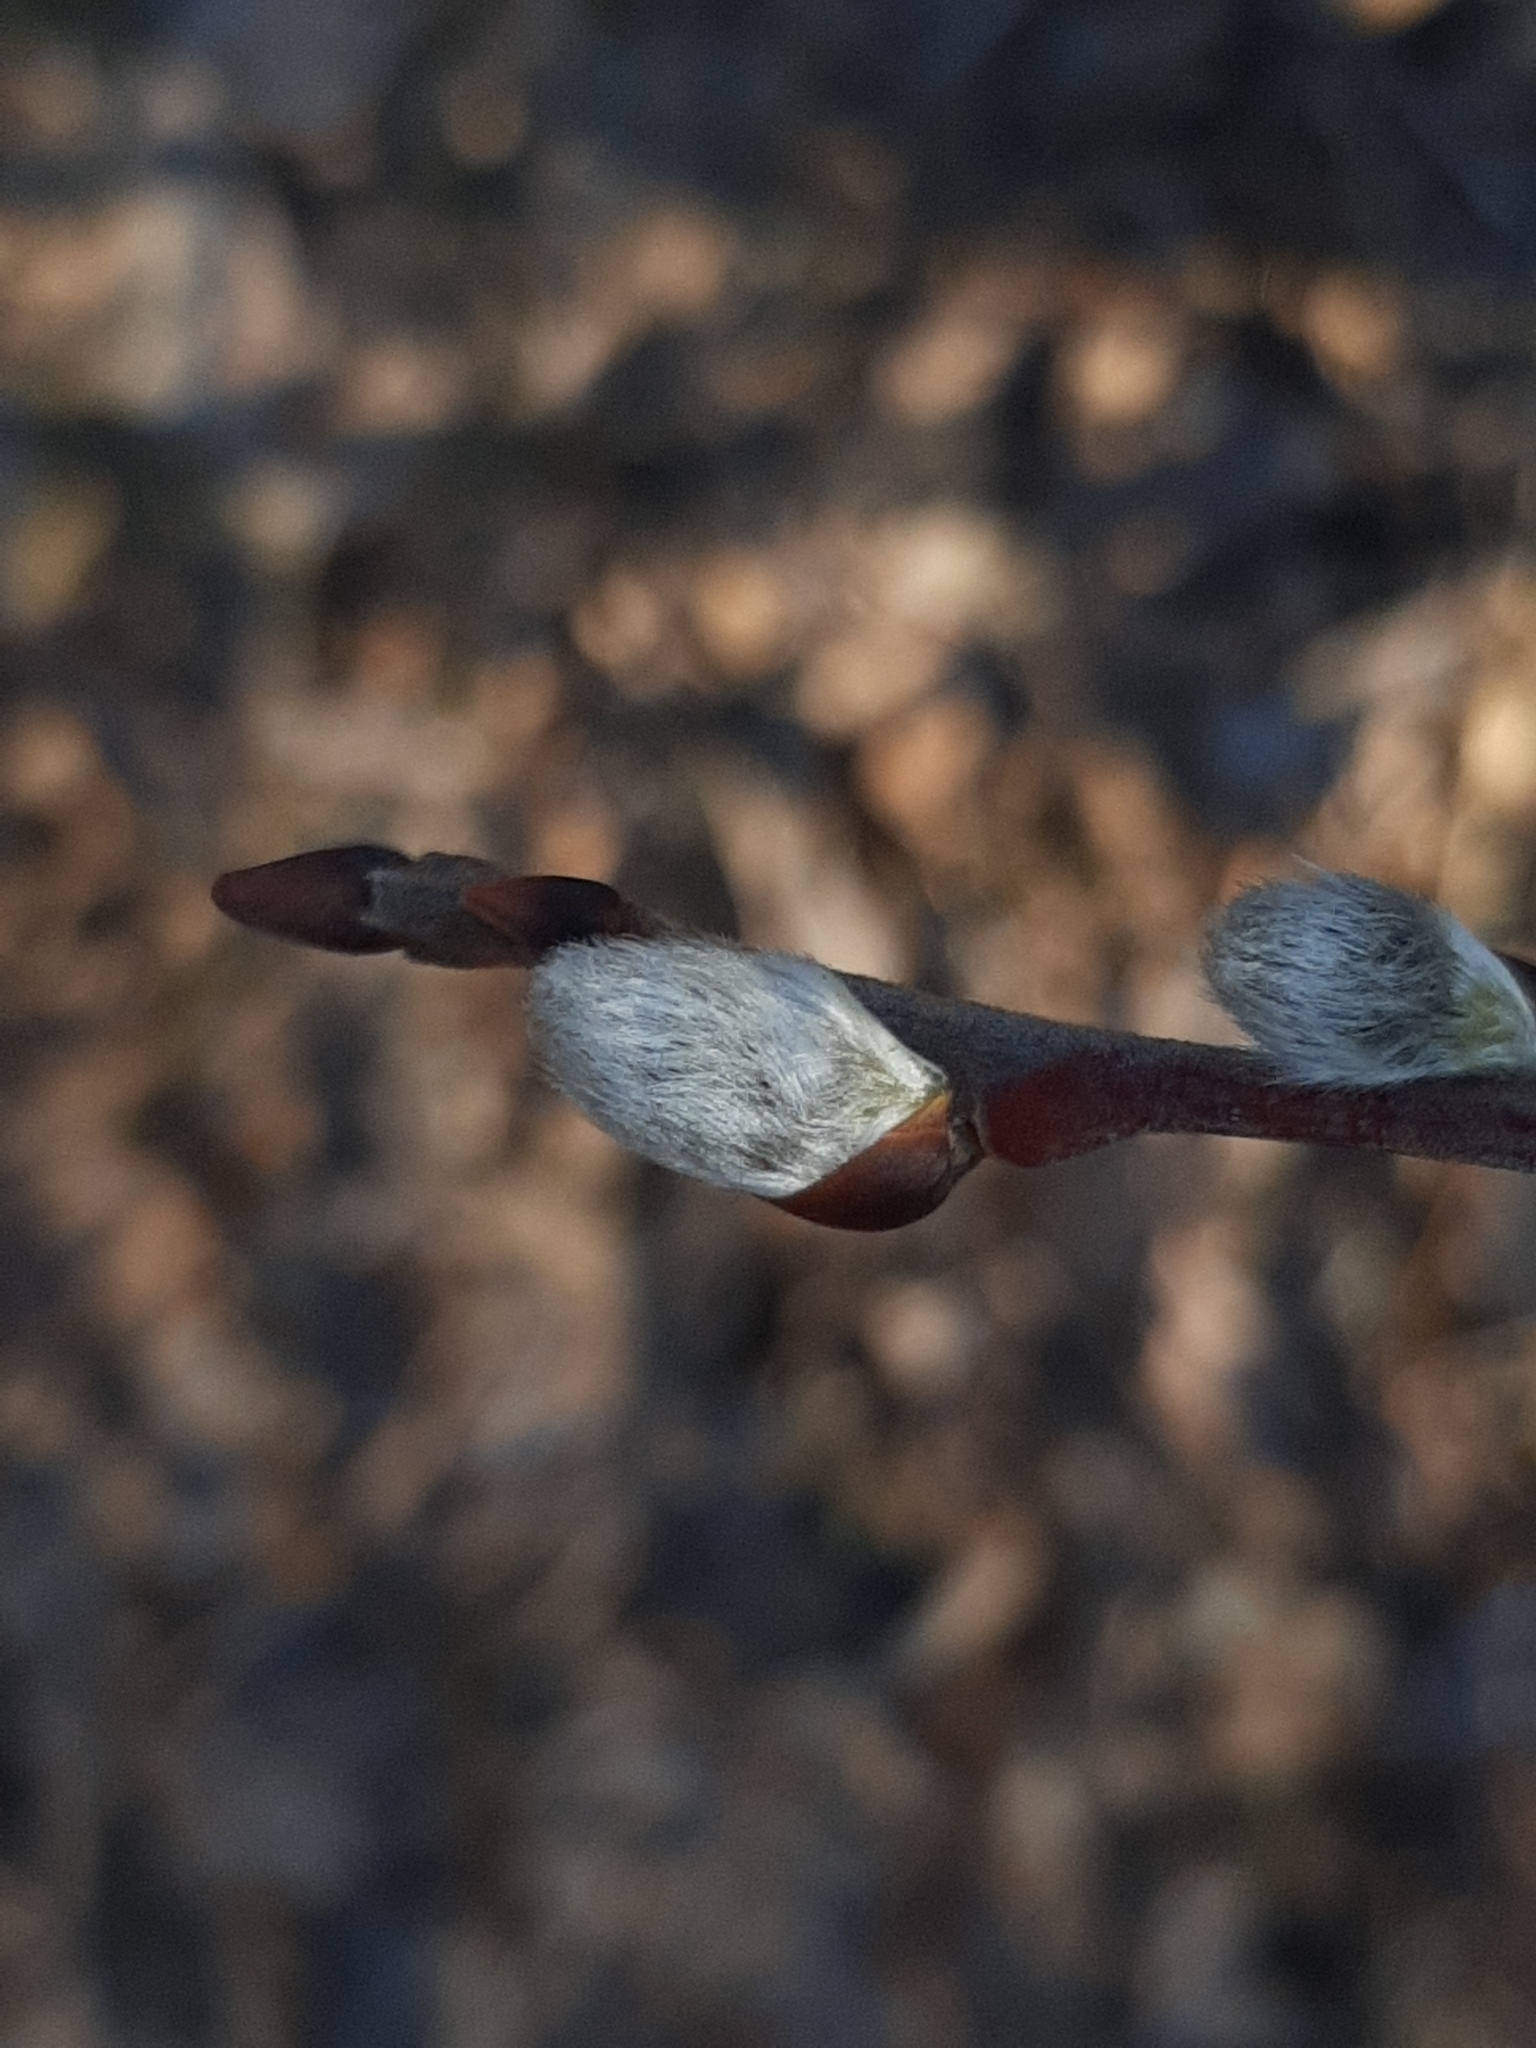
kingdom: Plantae
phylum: Tracheophyta
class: Magnoliopsida
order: Malpighiales
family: Salicaceae
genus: Salix
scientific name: Salix caprea
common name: Goat willow
